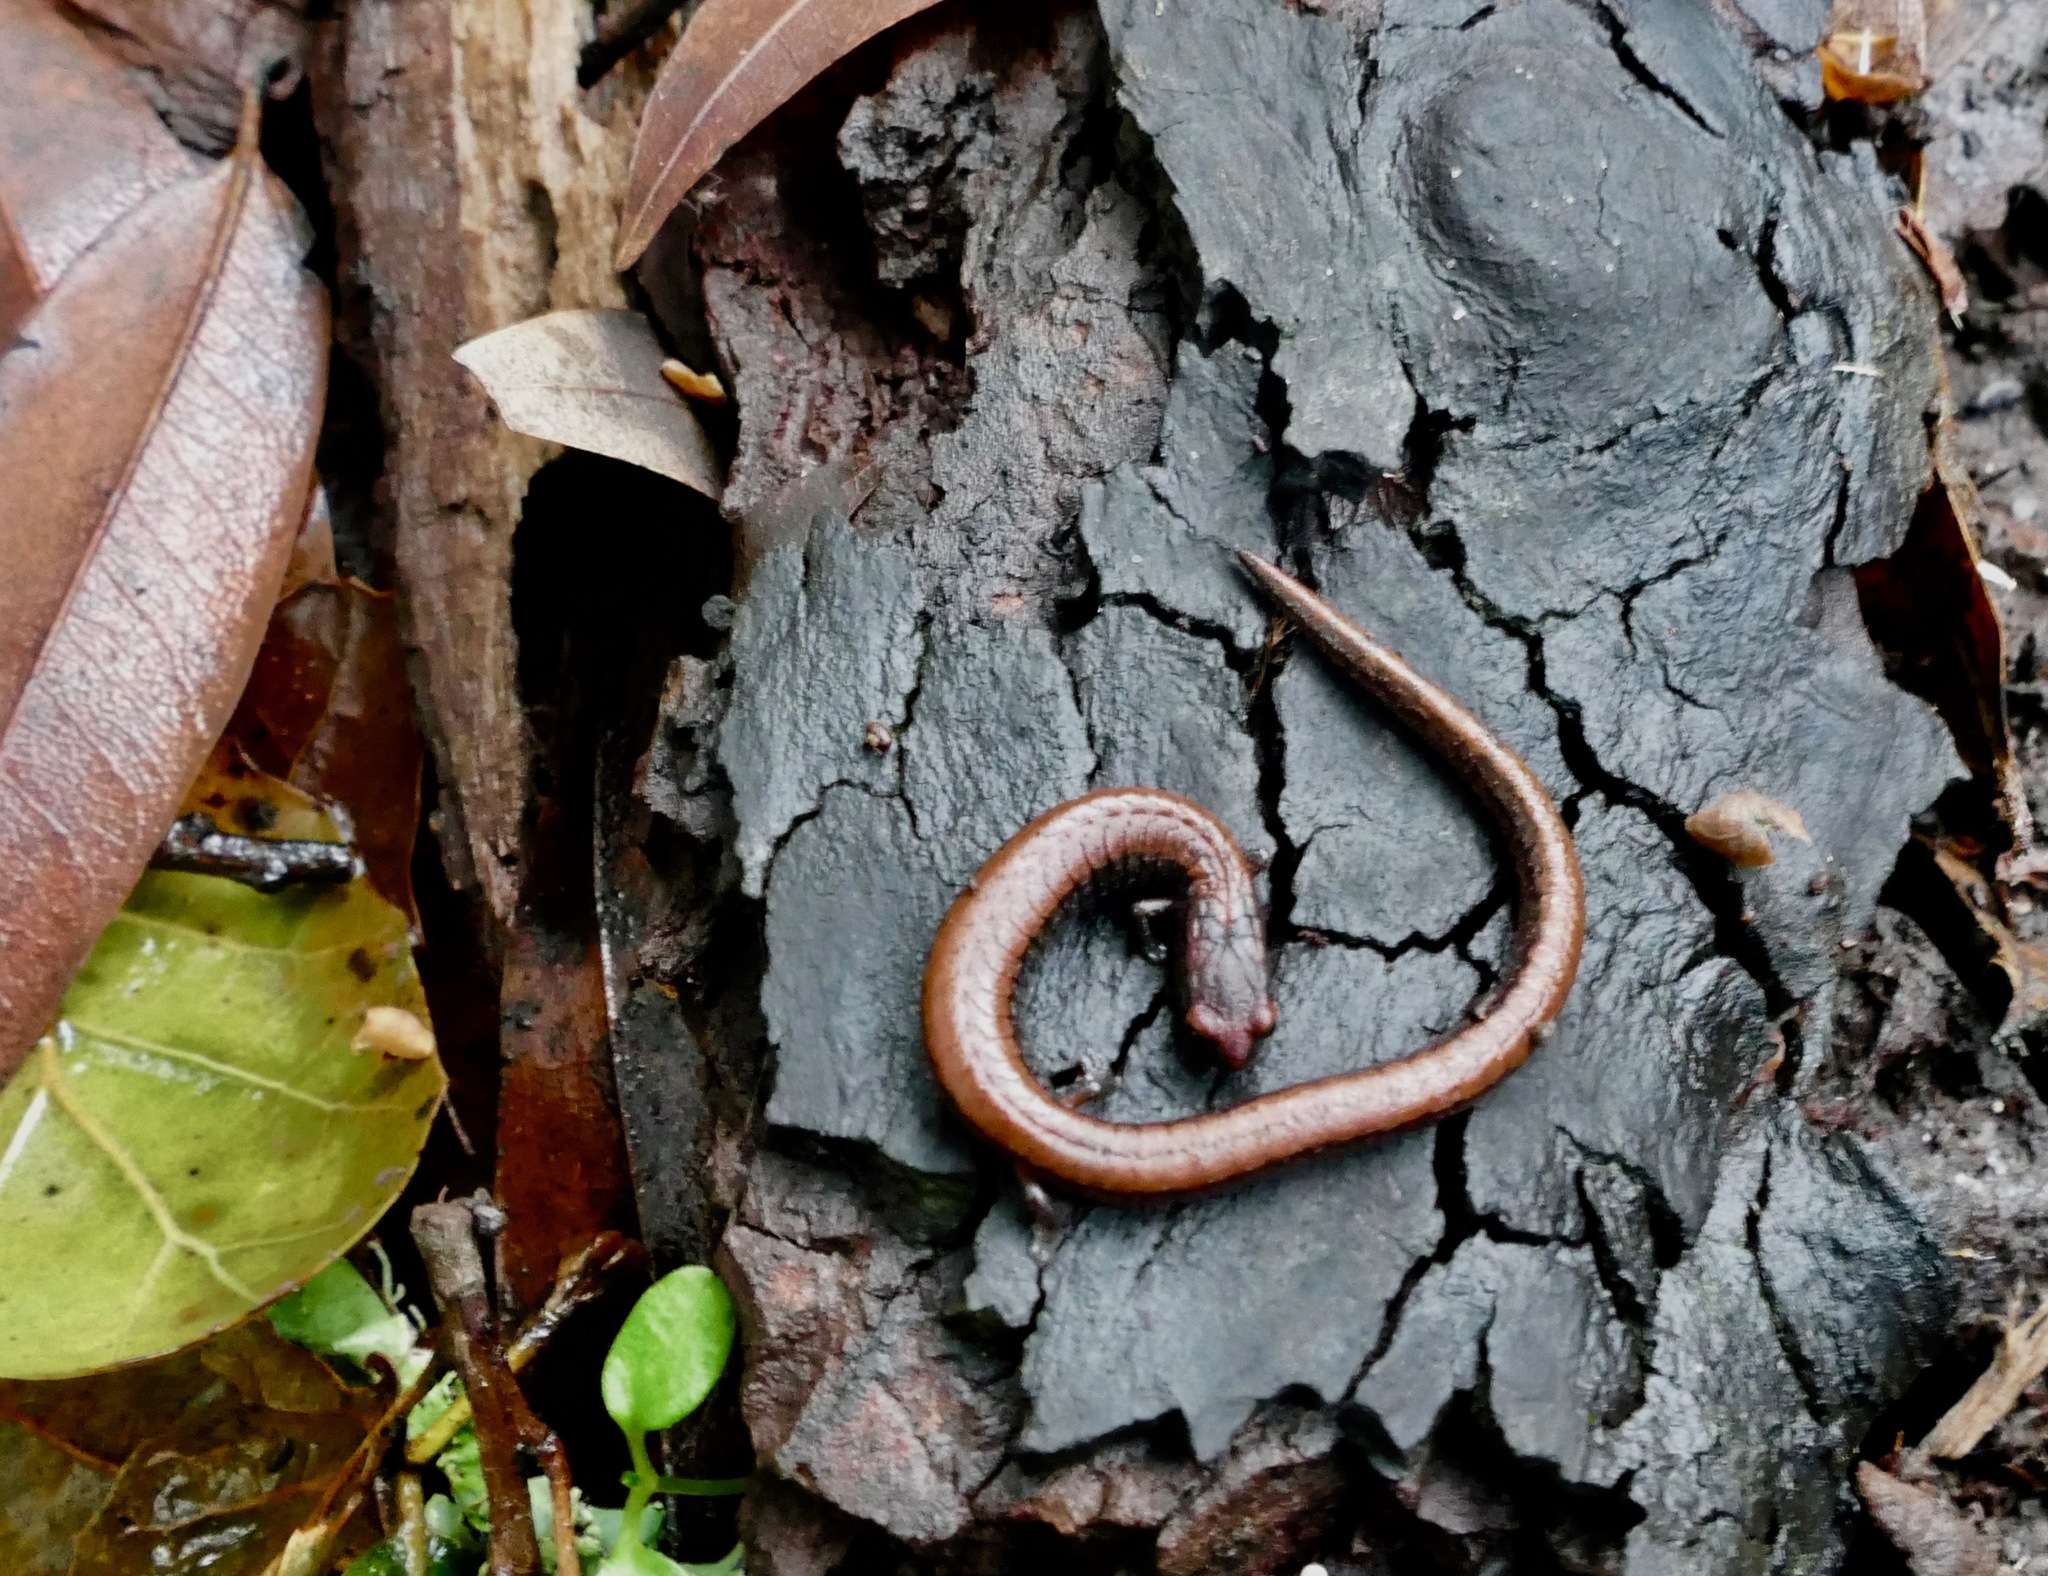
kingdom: Animalia
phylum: Chordata
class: Amphibia
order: Caudata
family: Plethodontidae
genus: Batrachoseps
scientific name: Batrachoseps attenuatus
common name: California slender salamander
